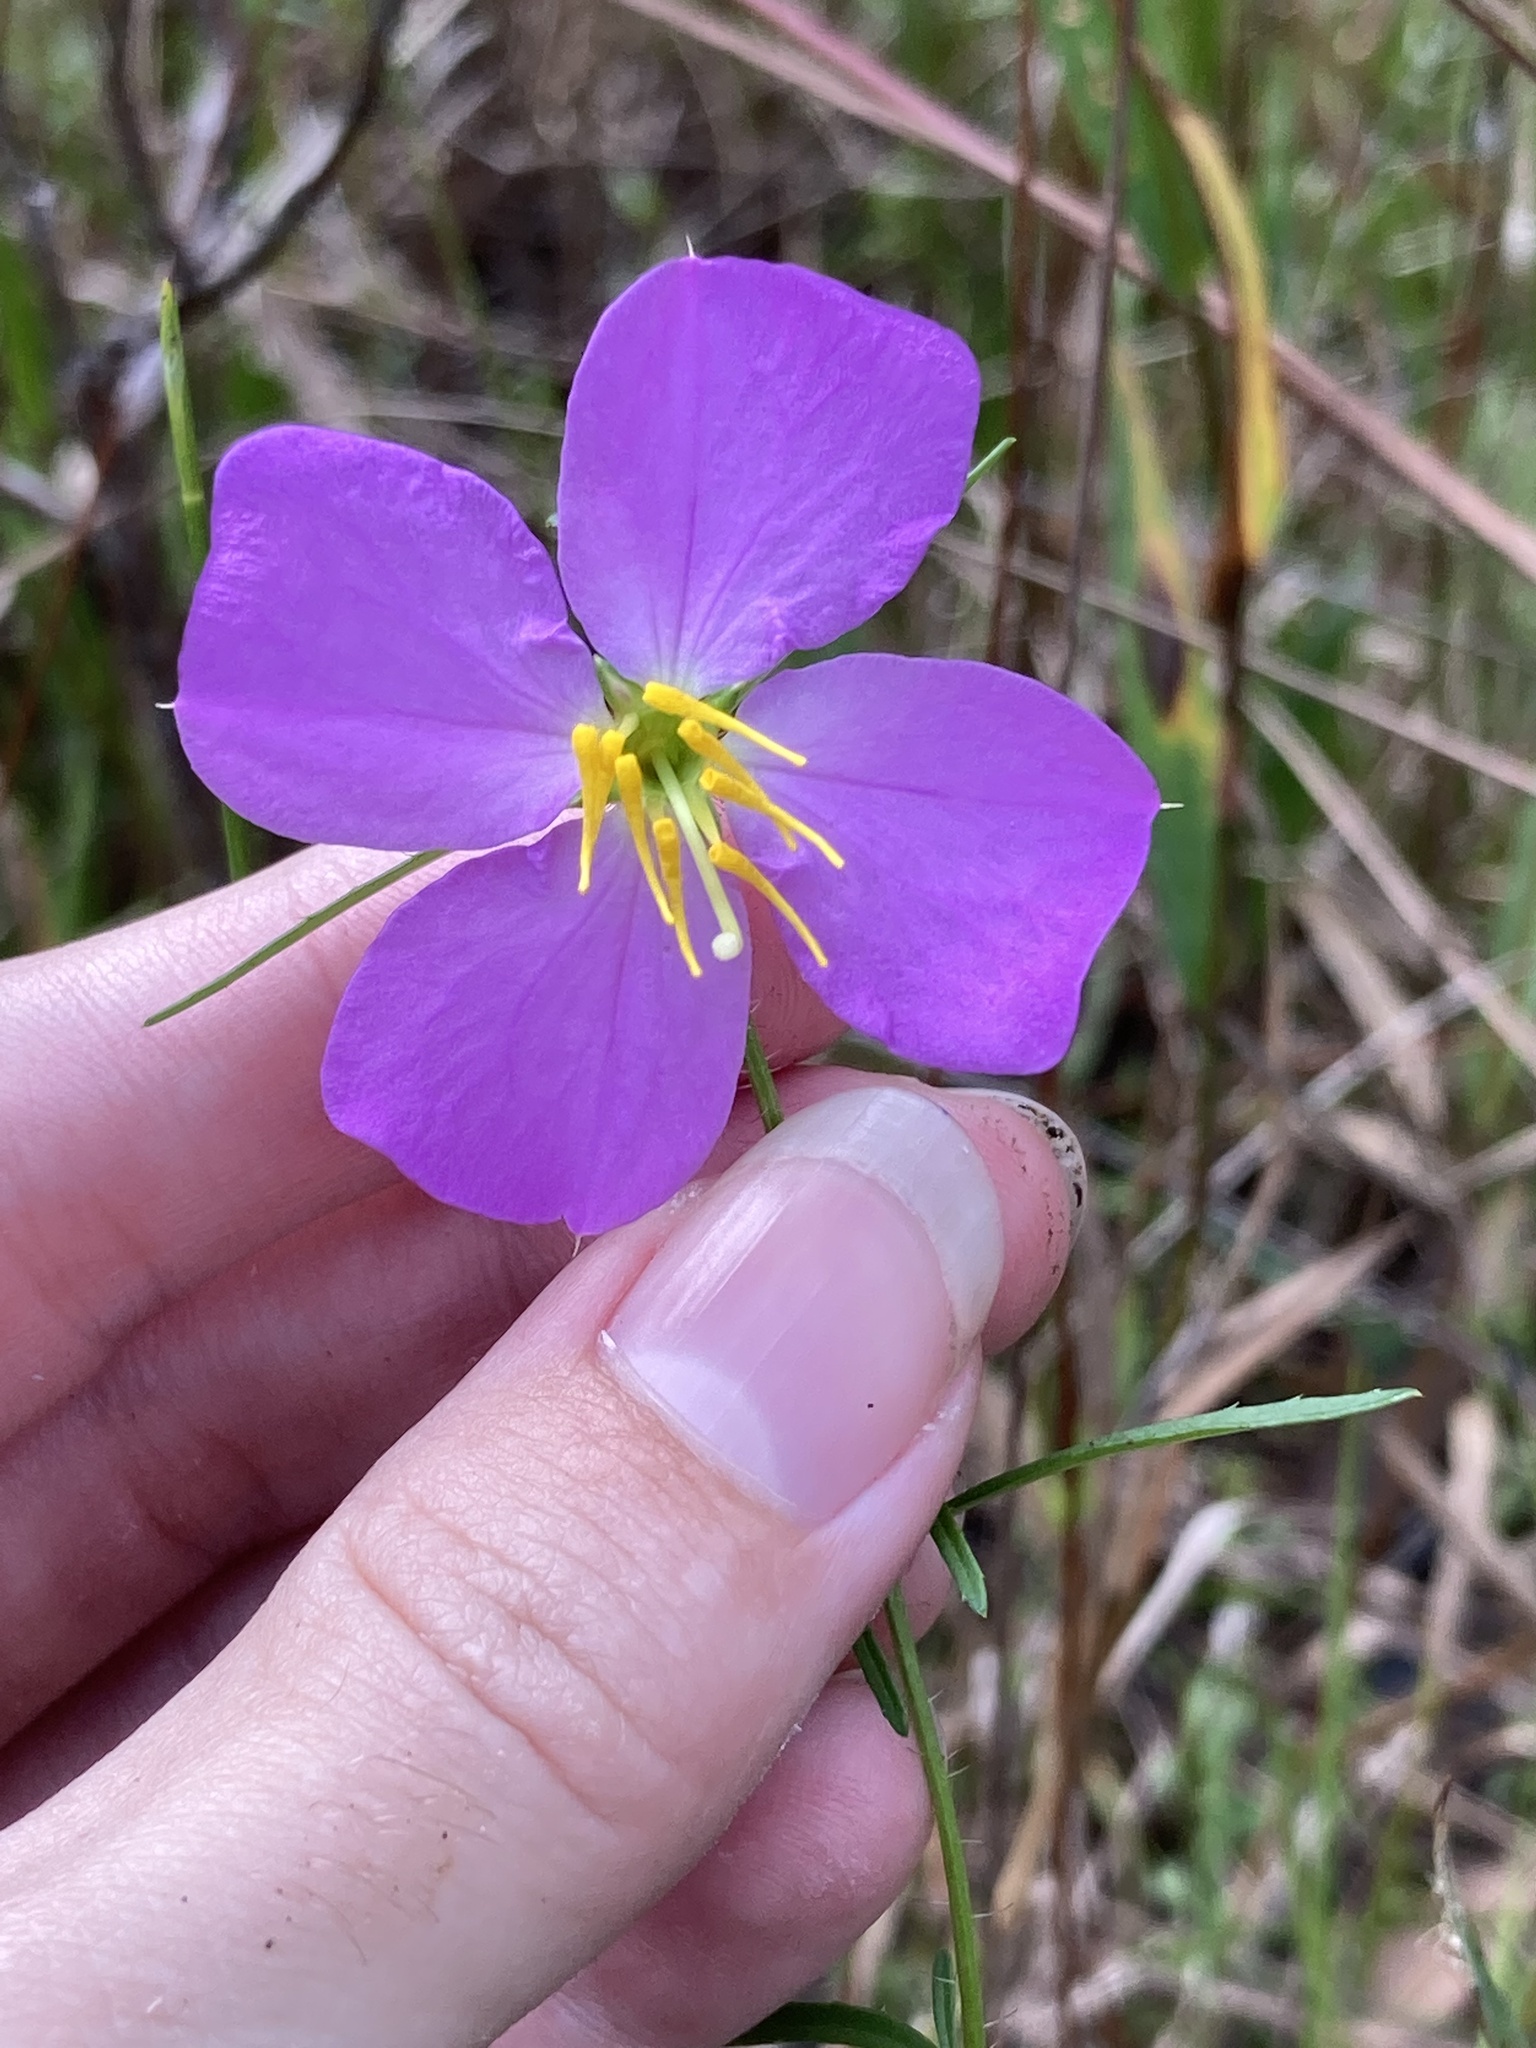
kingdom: Plantae
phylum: Tracheophyta
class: Magnoliopsida
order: Myrtales
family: Melastomataceae
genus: Rhexia
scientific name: Rhexia cubensis
